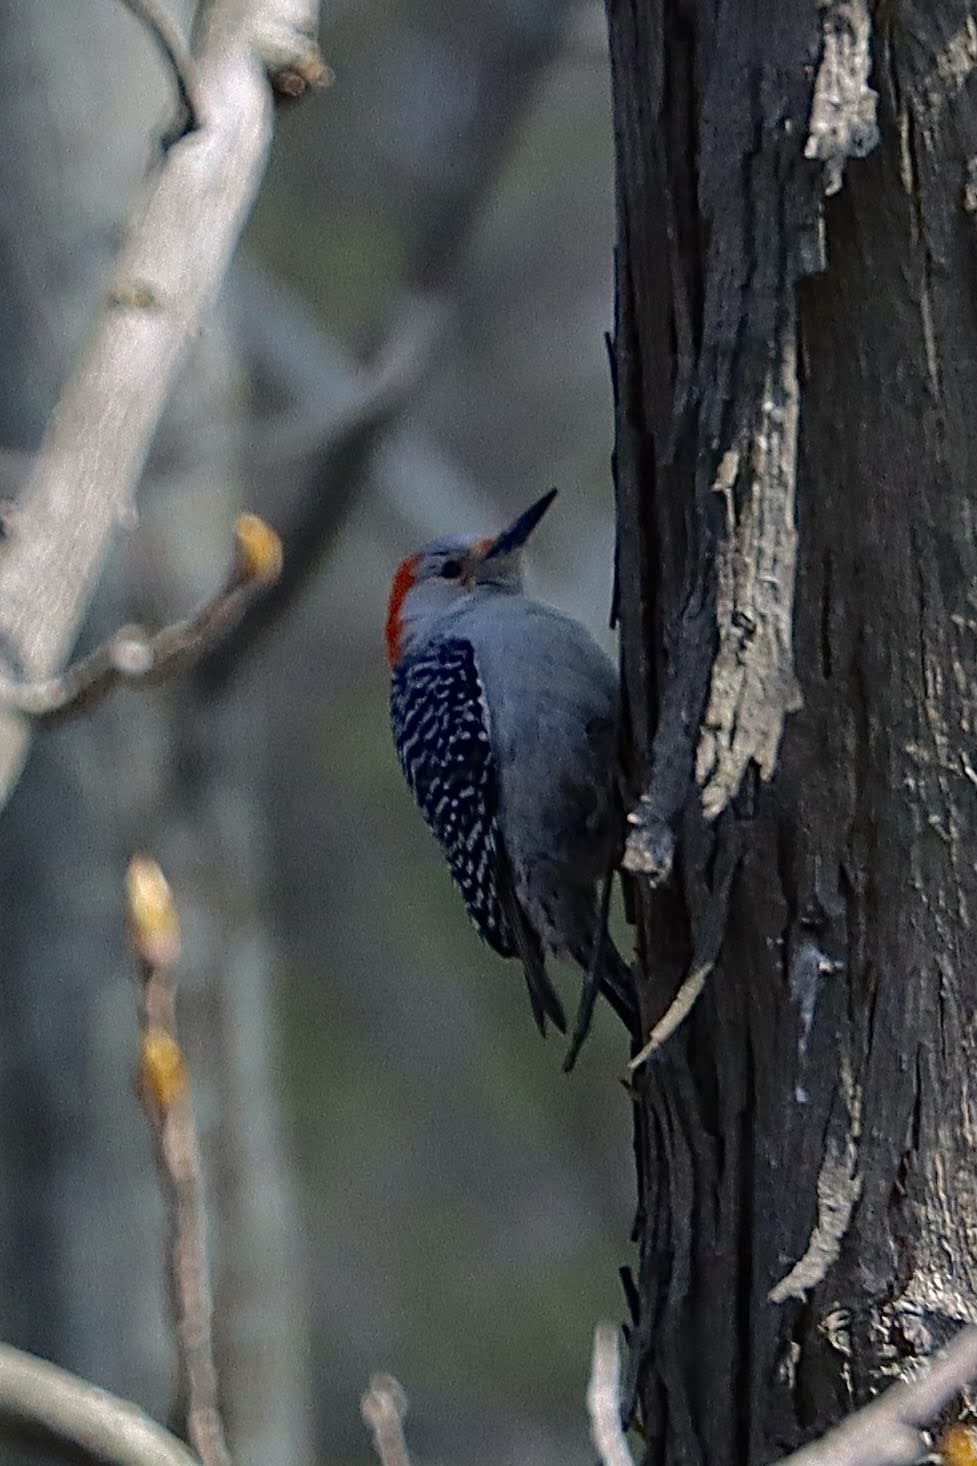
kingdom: Animalia
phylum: Chordata
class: Aves
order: Piciformes
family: Picidae
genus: Melanerpes
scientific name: Melanerpes carolinus
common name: Red-bellied woodpecker
